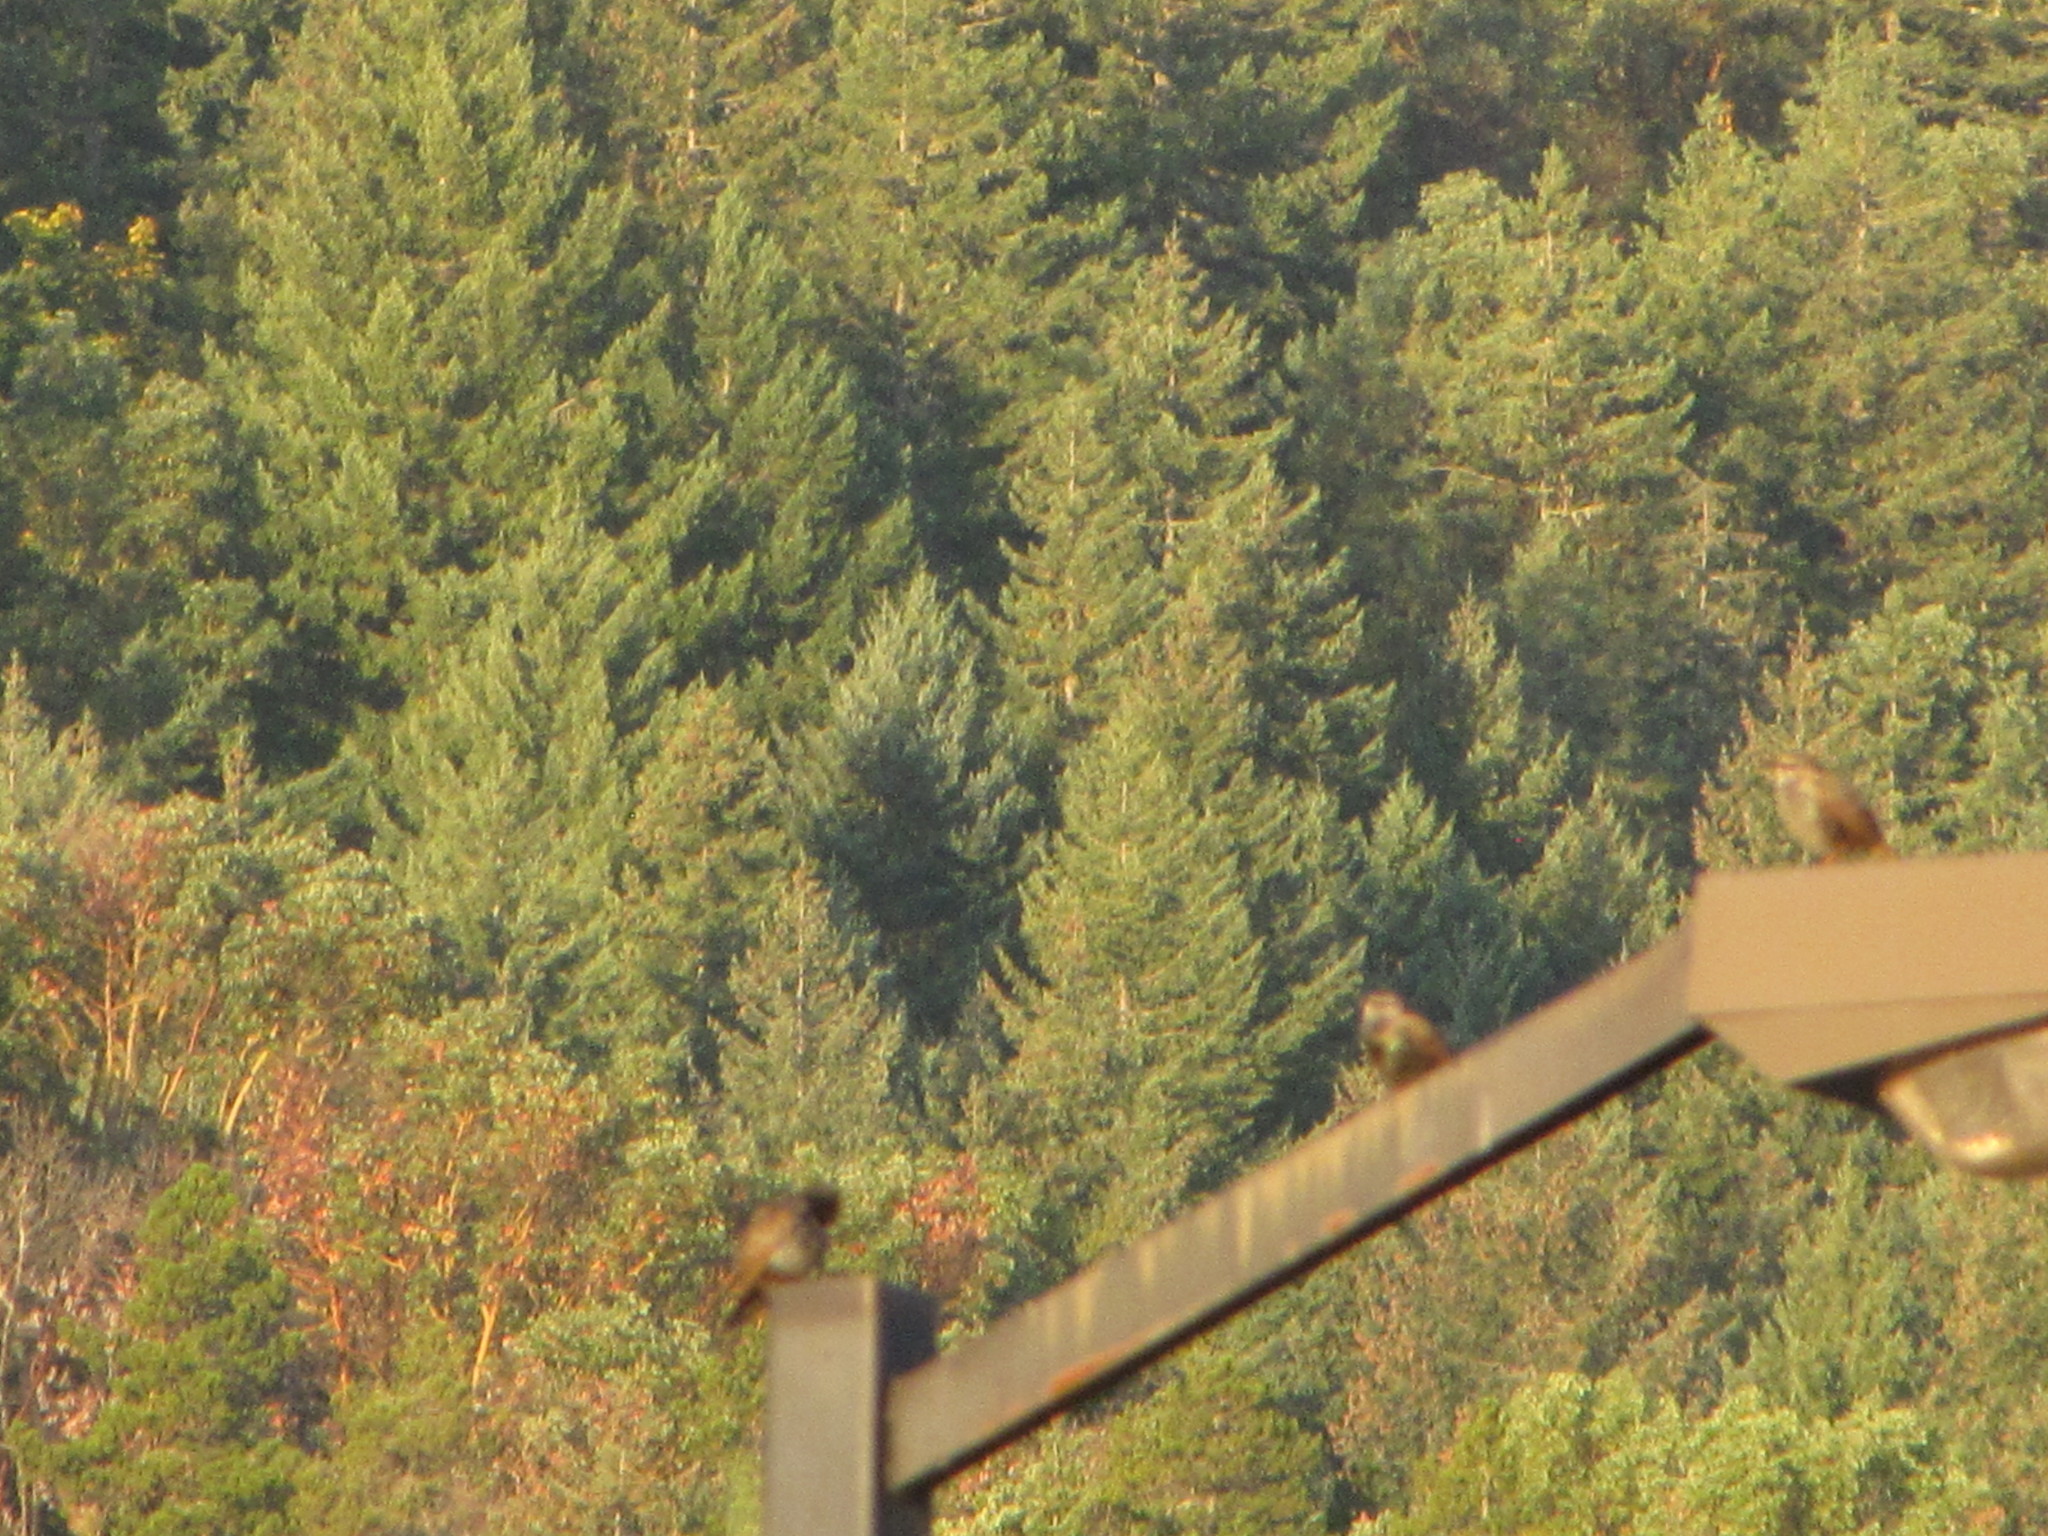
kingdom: Animalia
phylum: Chordata
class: Aves
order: Passeriformes
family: Sturnidae
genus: Sturnus
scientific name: Sturnus vulgaris
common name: Common starling
